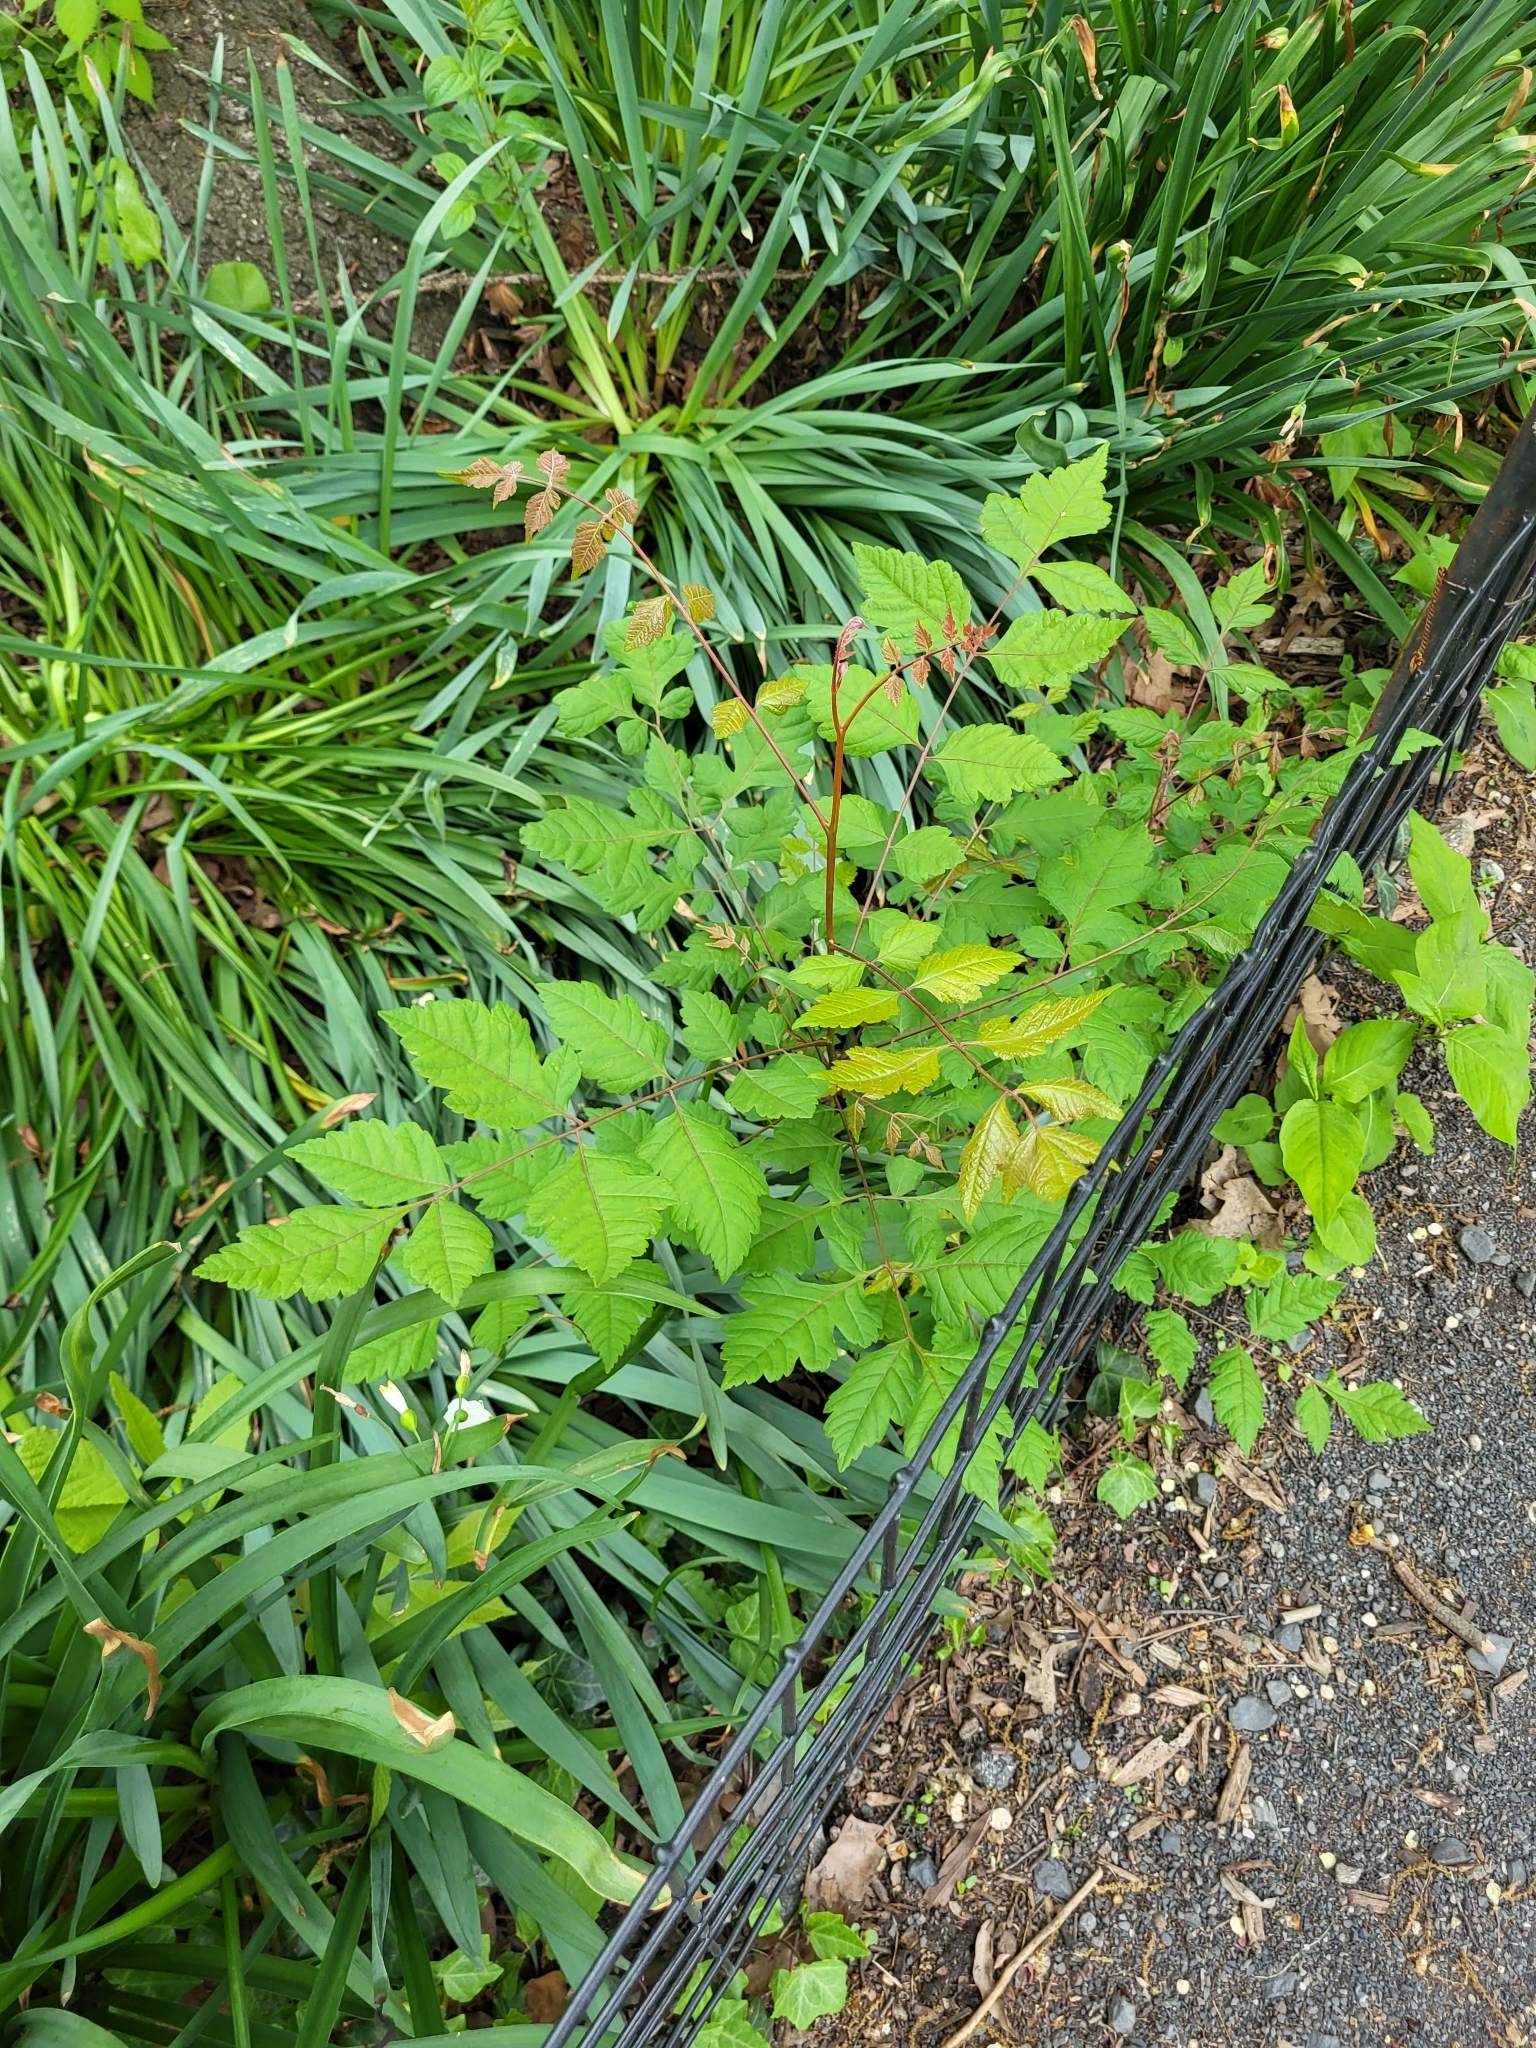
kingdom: Plantae
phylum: Tracheophyta
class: Magnoliopsida
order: Sapindales
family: Sapindaceae
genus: Koelreuteria
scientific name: Koelreuteria paniculata
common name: Pride-of-india
